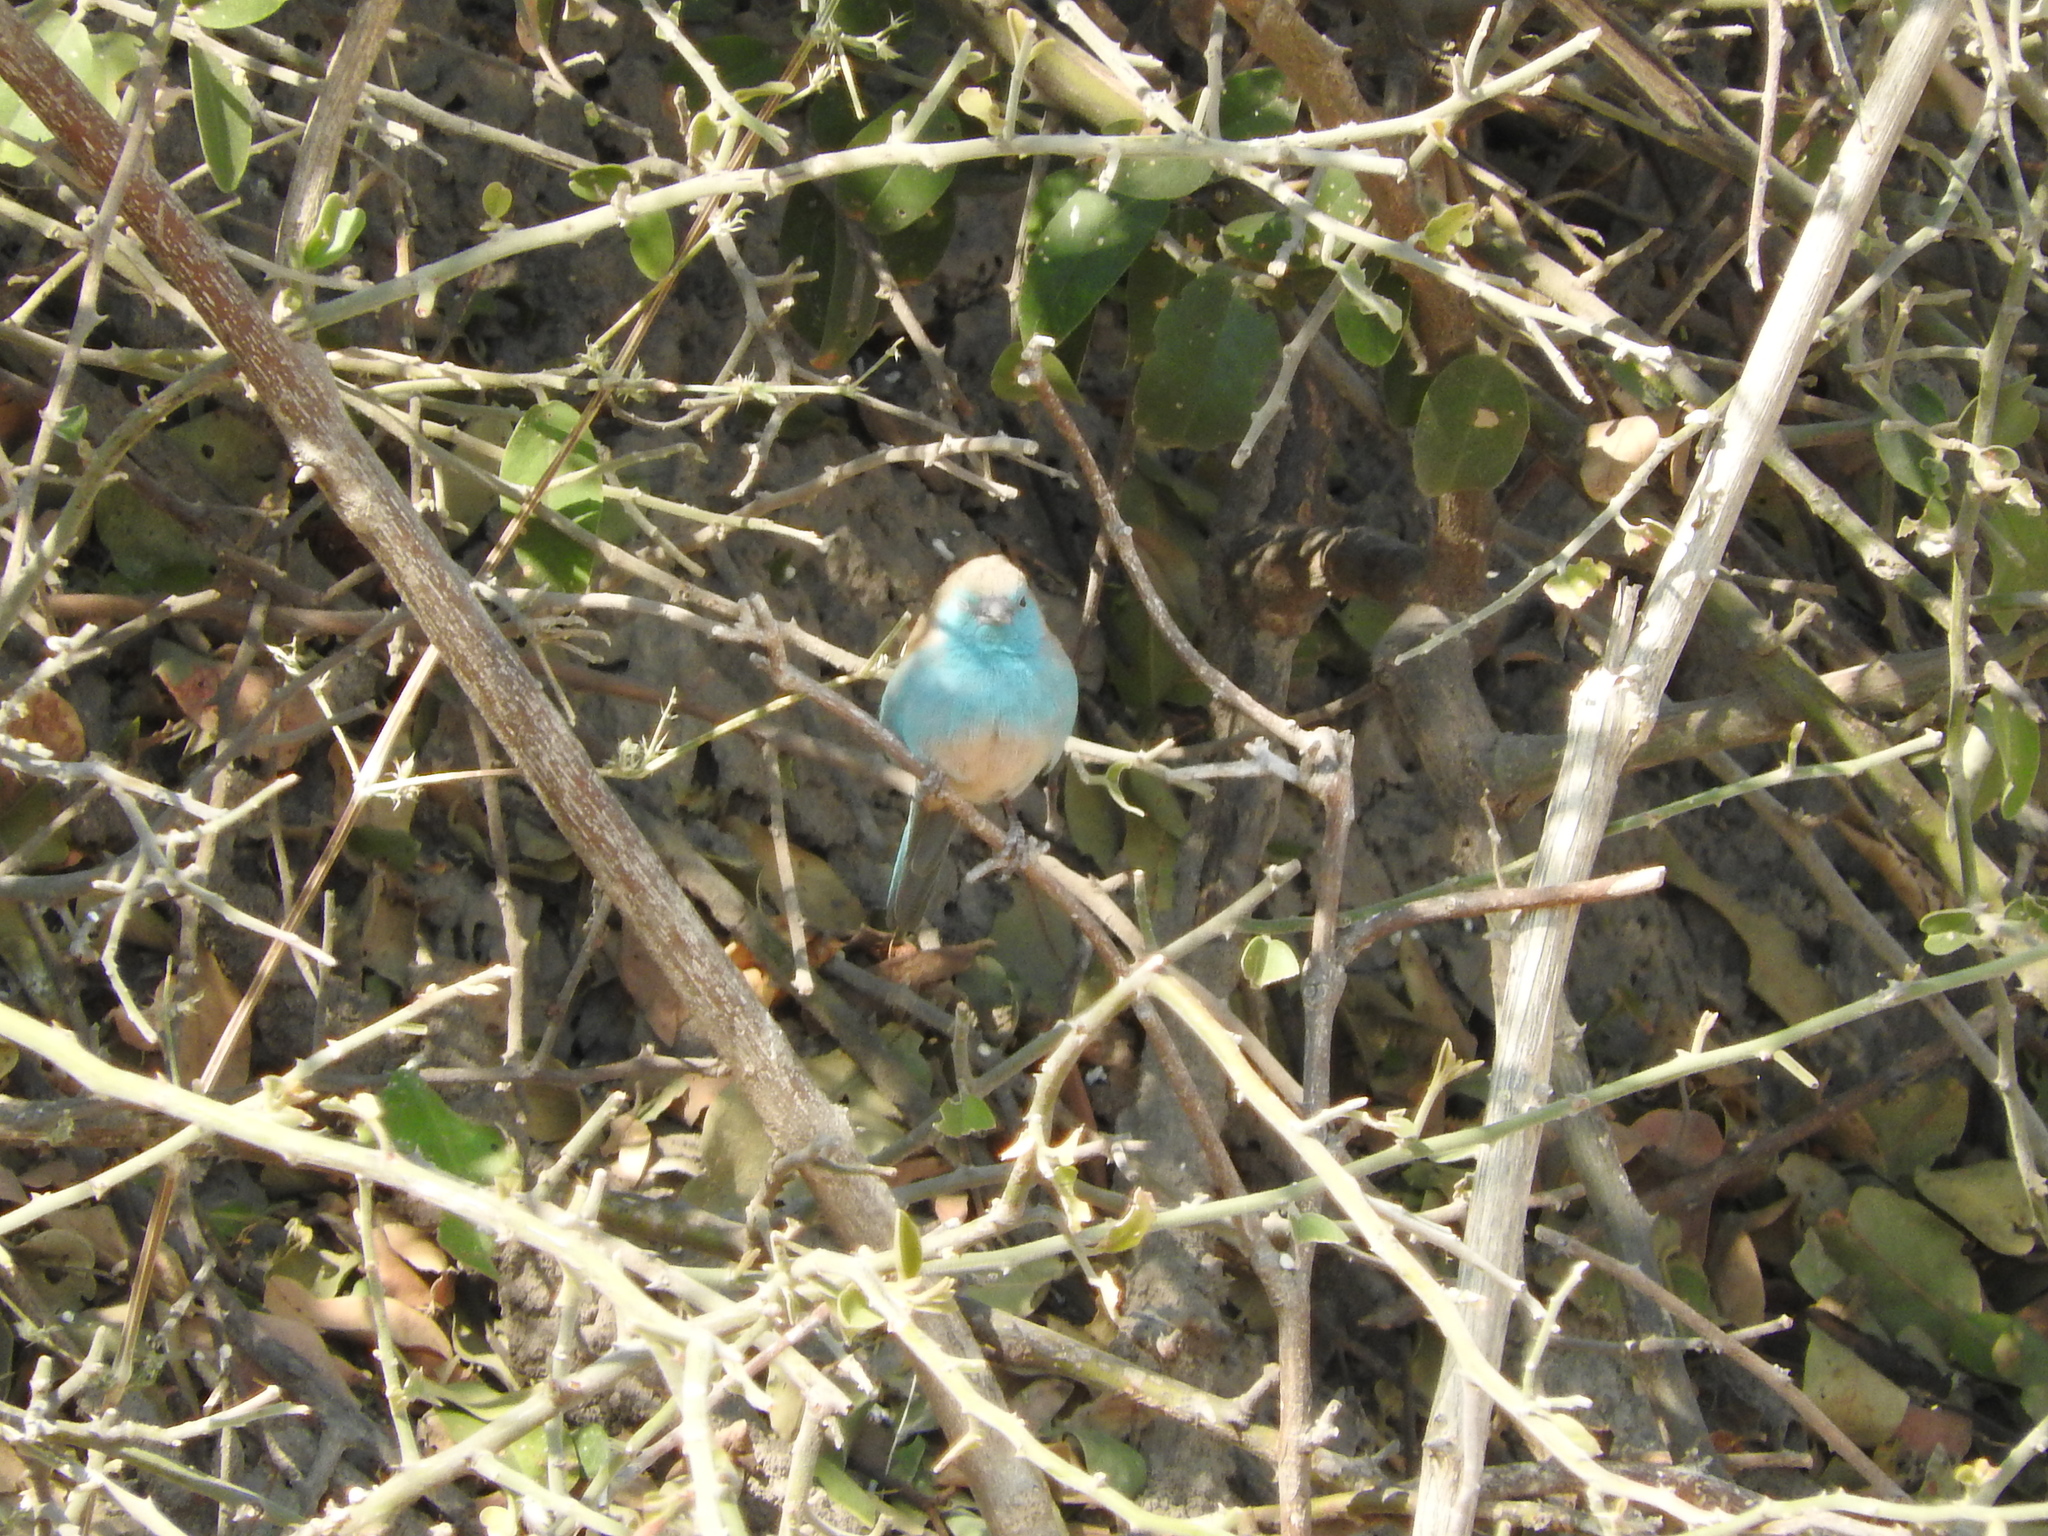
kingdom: Animalia
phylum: Chordata
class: Aves
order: Passeriformes
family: Estrildidae
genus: Uraeginthus
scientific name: Uraeginthus angolensis
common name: Blue waxbill
